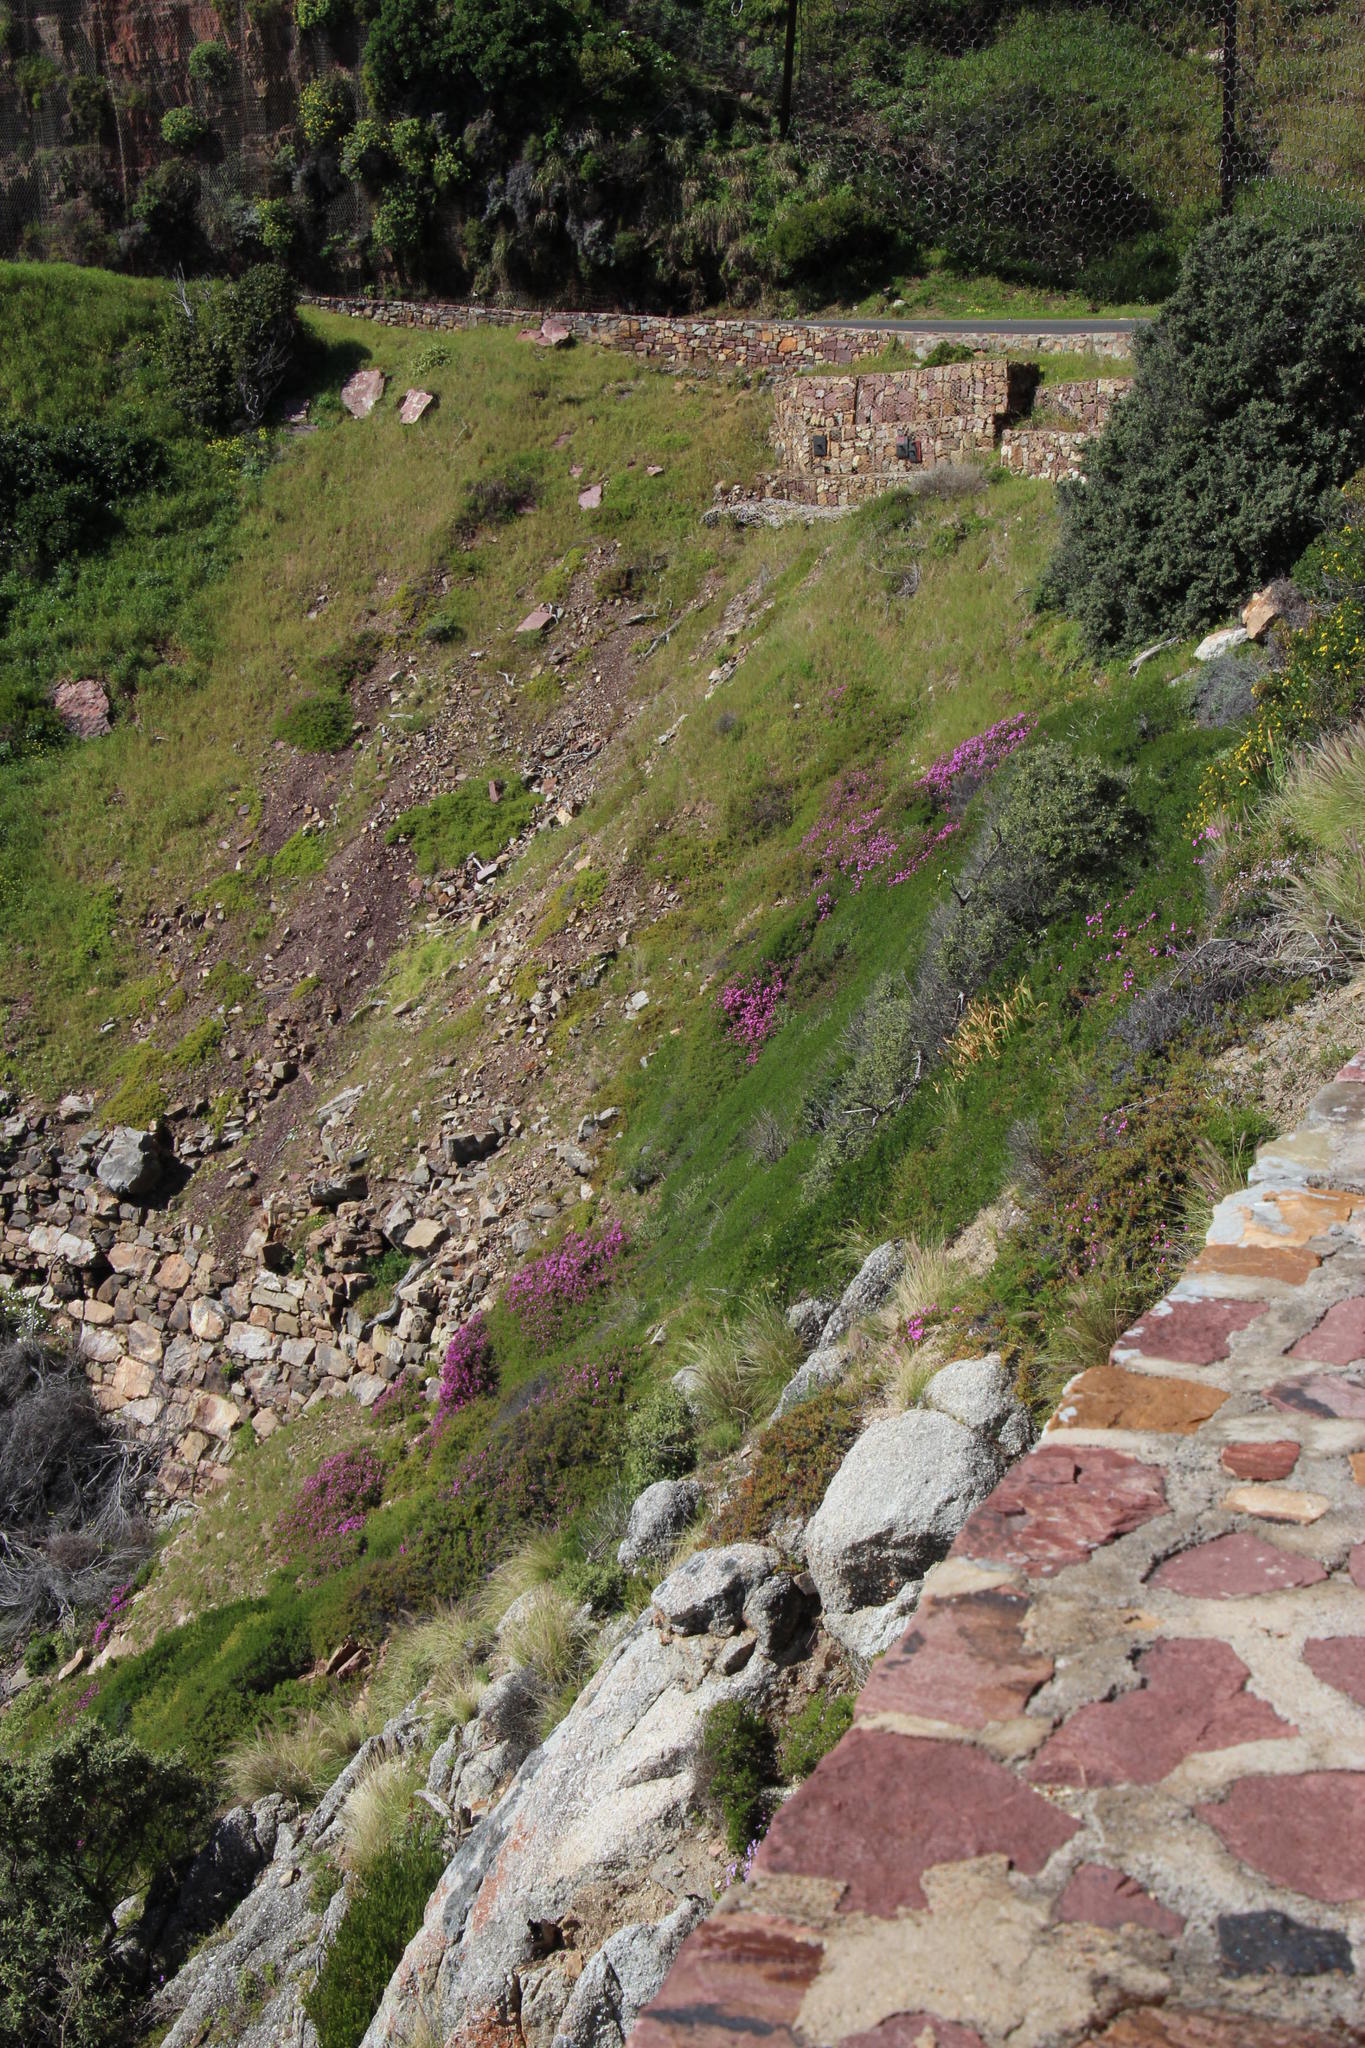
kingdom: Plantae
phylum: Tracheophyta
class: Magnoliopsida
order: Caryophyllales
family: Aizoaceae
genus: Ruschia
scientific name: Ruschia macowanii
